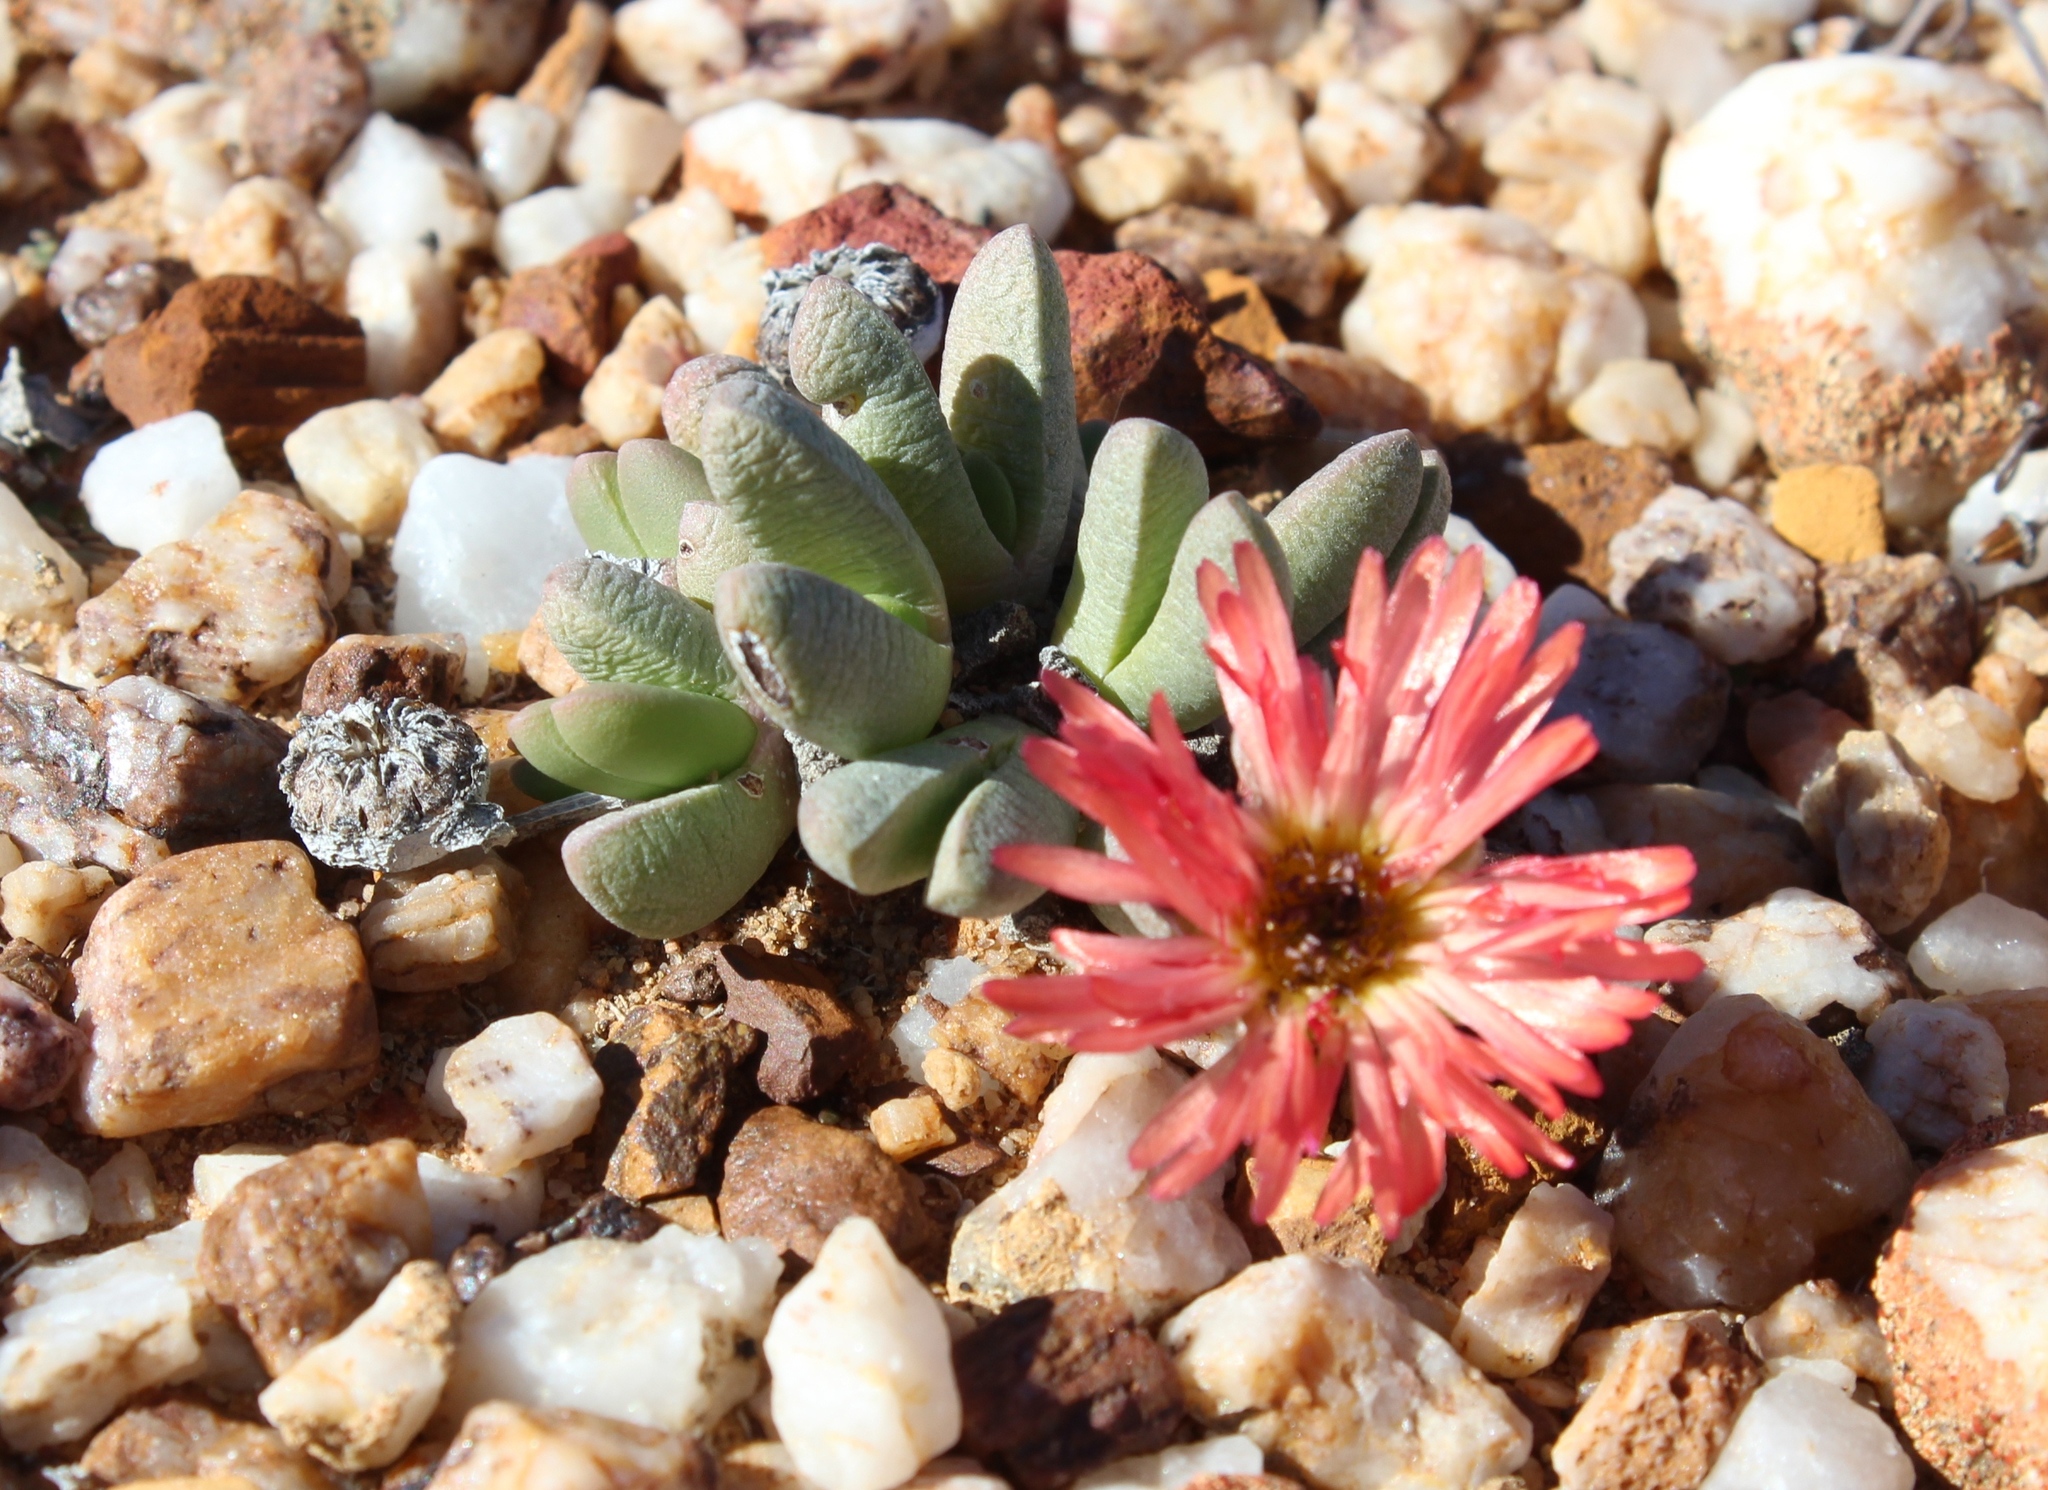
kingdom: Plantae
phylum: Tracheophyta
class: Magnoliopsida
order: Caryophyllales
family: Aizoaceae
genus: Cephalophyllum
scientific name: Cephalophyllum spissum
